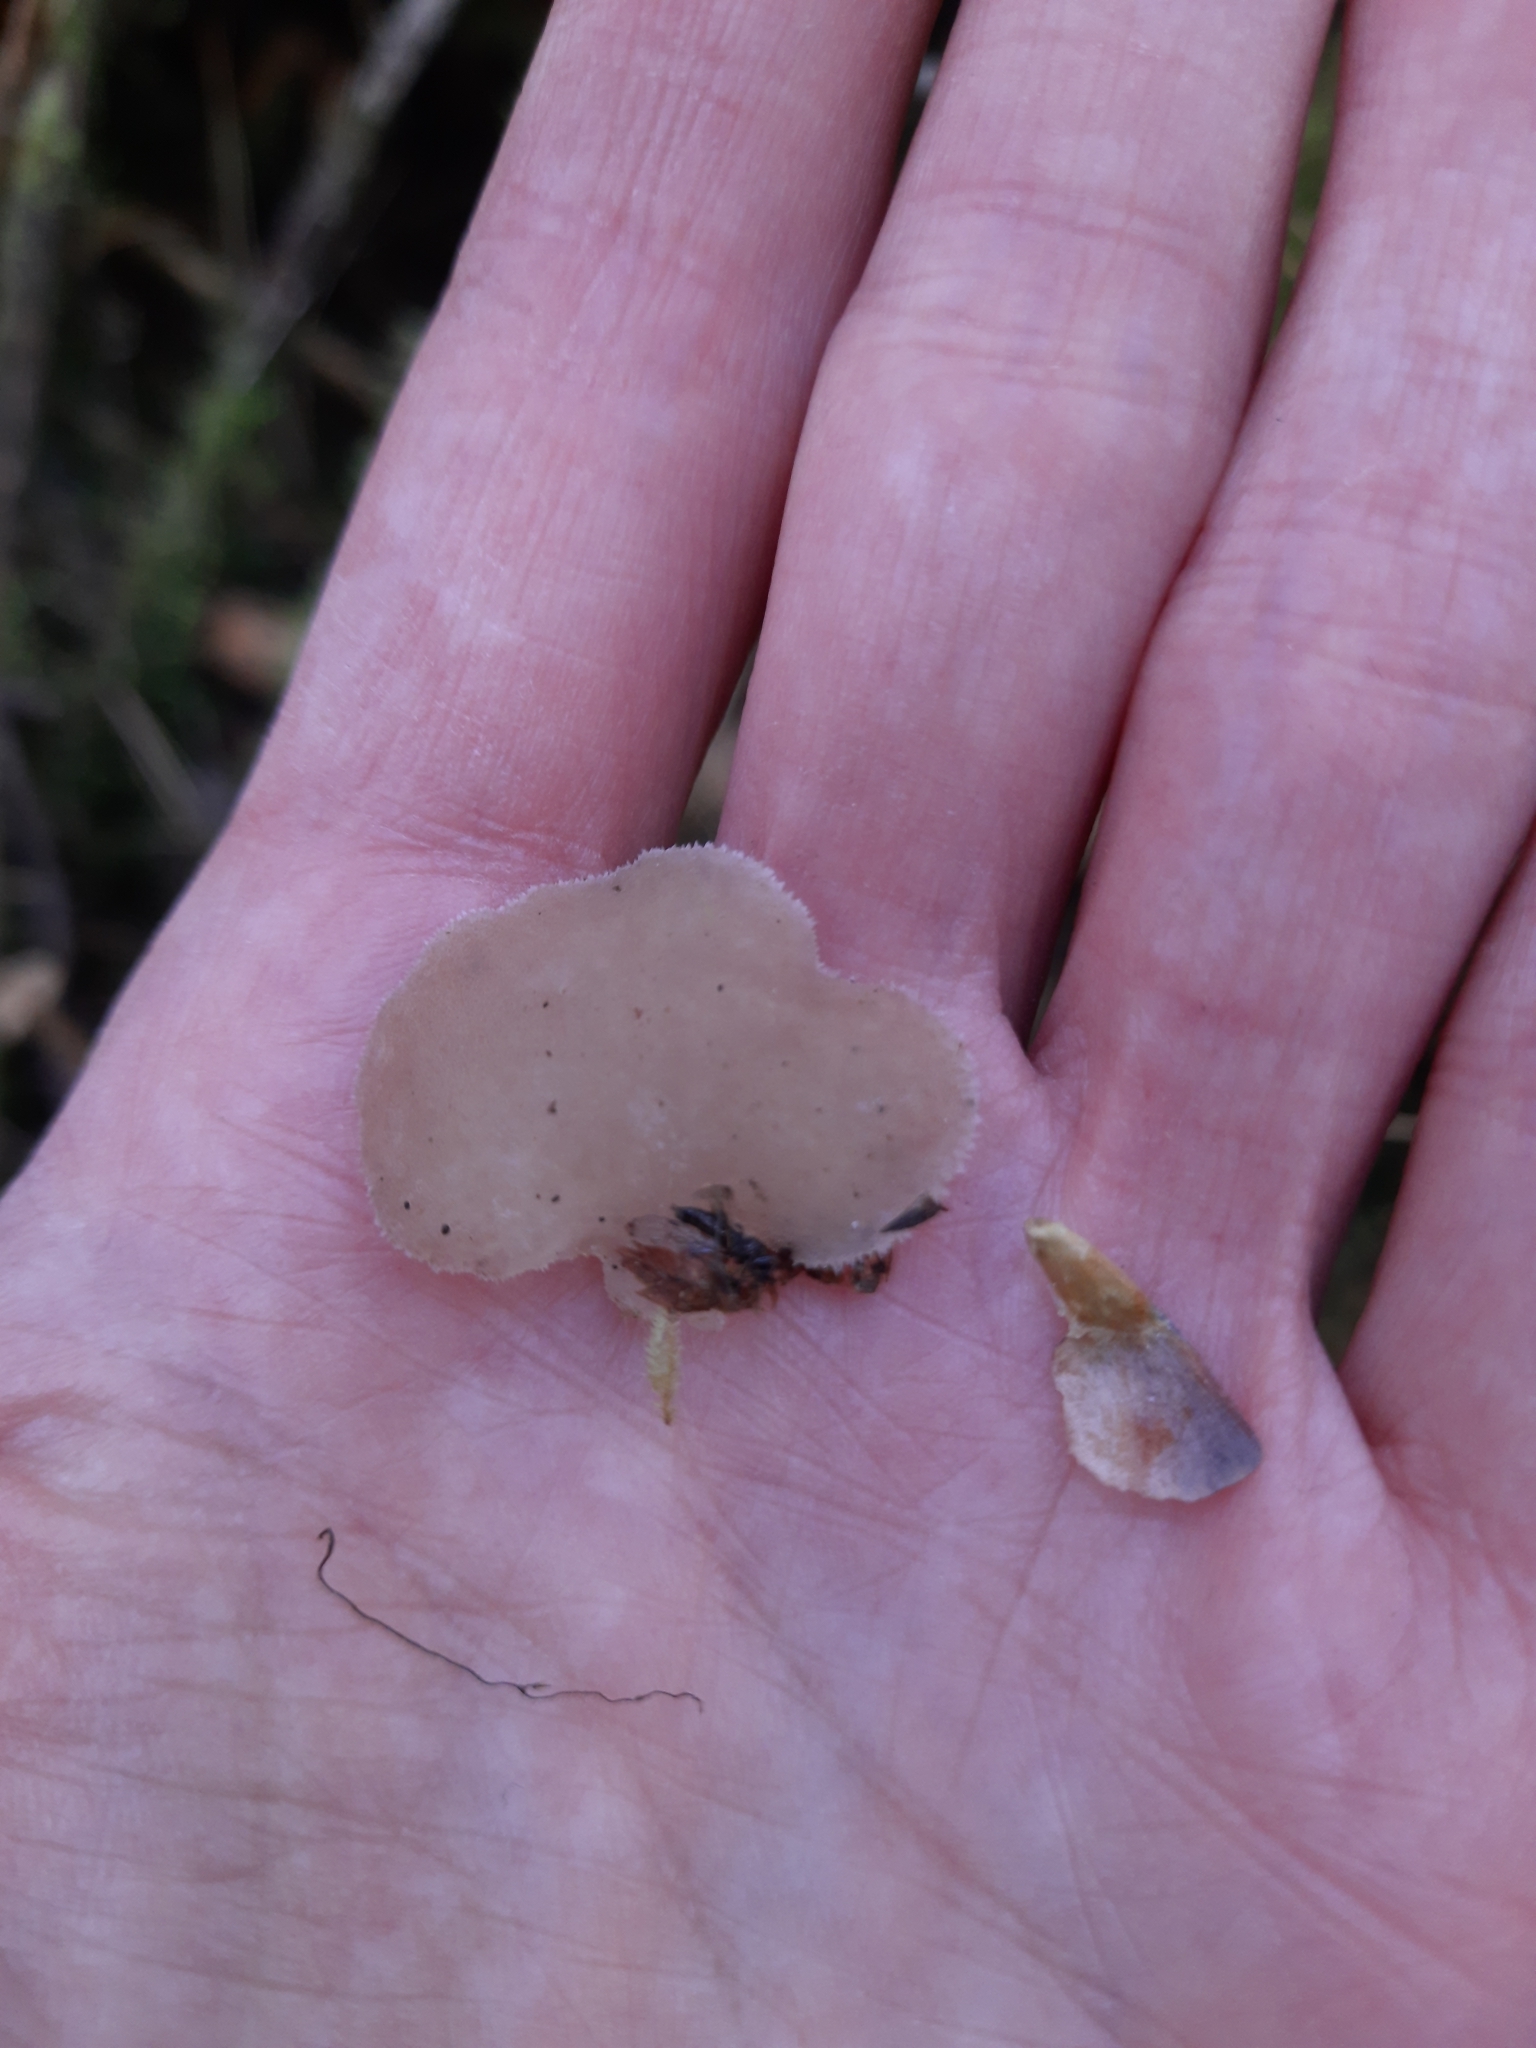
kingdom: Fungi
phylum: Basidiomycota
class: Agaricomycetes
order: Auriculariales
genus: Pseudohydnum
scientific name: Pseudohydnum gelatinosum
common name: Jelly tongue
